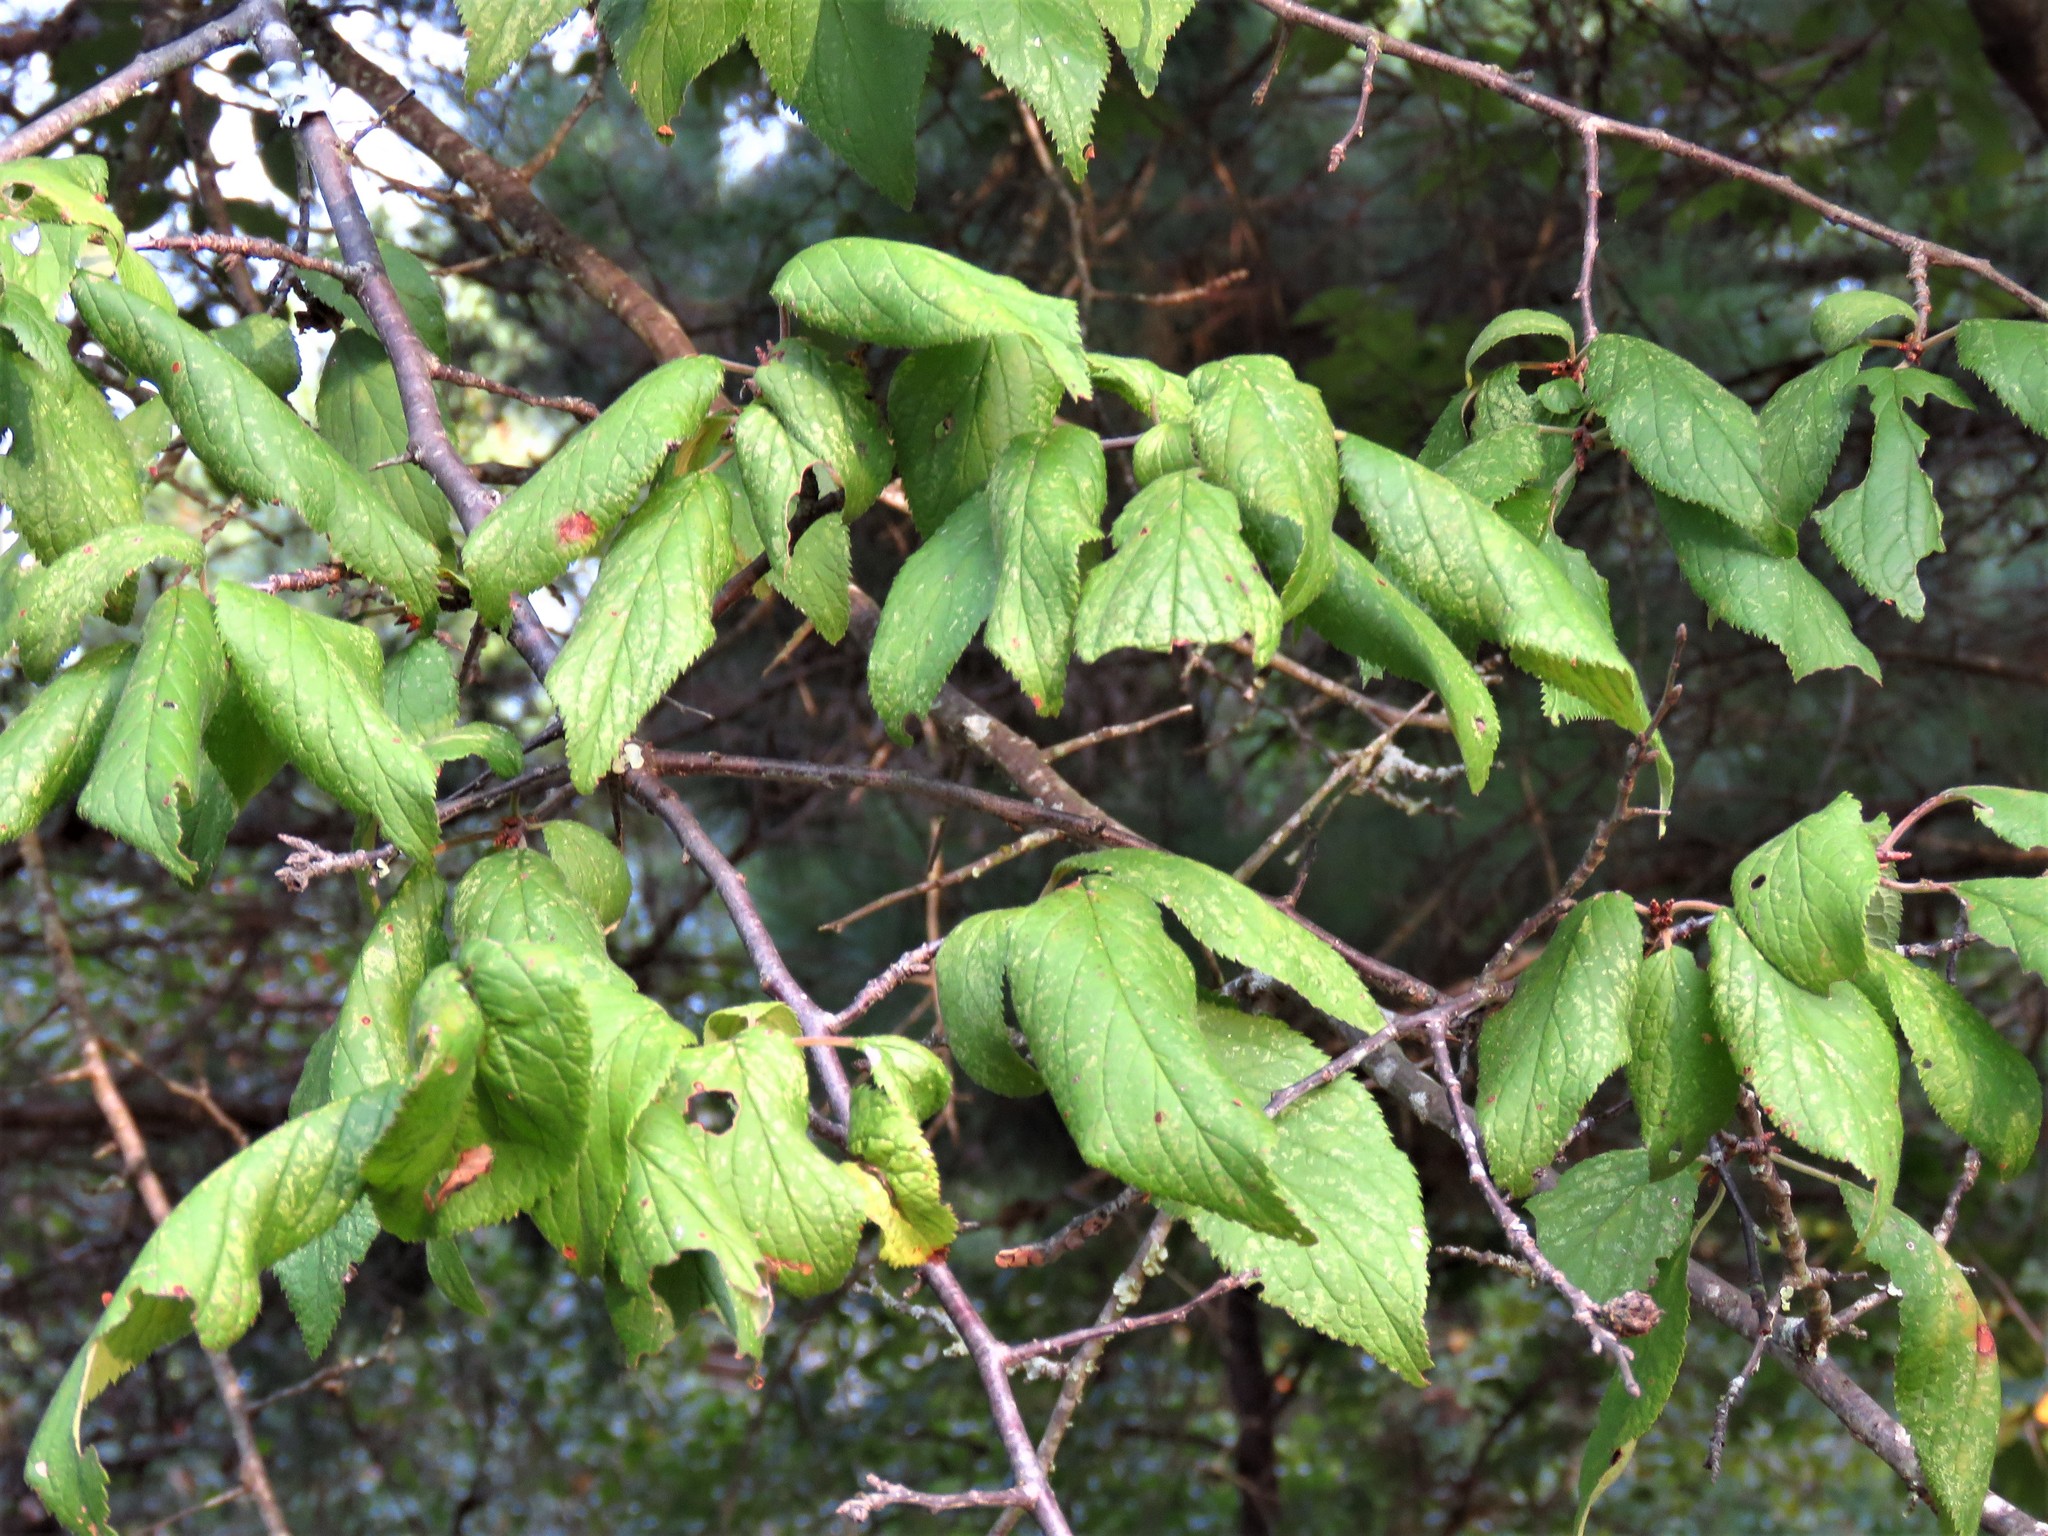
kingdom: Plantae
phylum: Tracheophyta
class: Magnoliopsida
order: Rosales
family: Rosaceae
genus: Prunus
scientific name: Prunus mexicana
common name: Mexican plum
